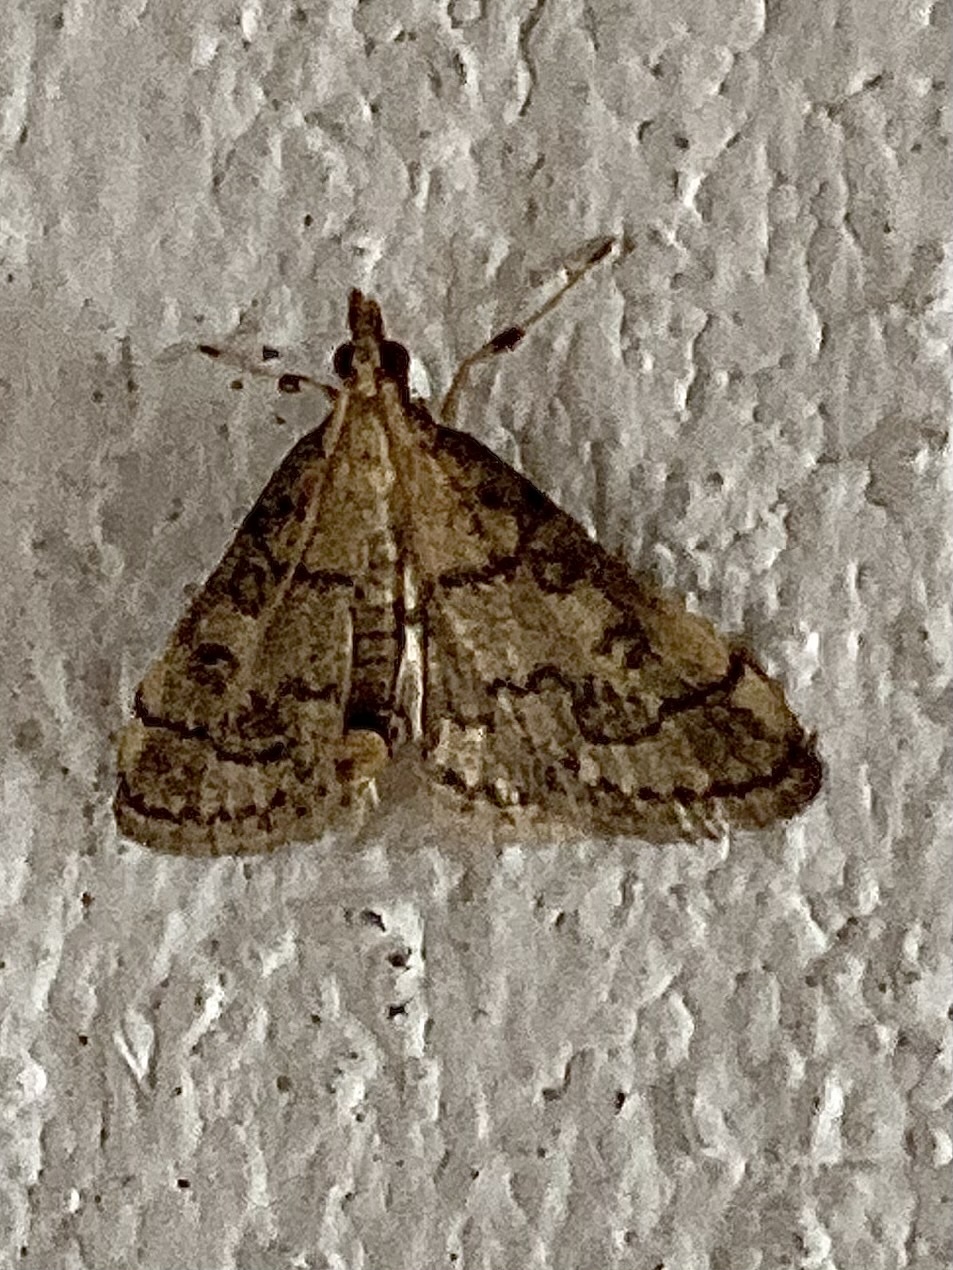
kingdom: Animalia
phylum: Arthropoda
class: Insecta
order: Lepidoptera
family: Crambidae
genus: Metasia
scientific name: Metasia ophialis
